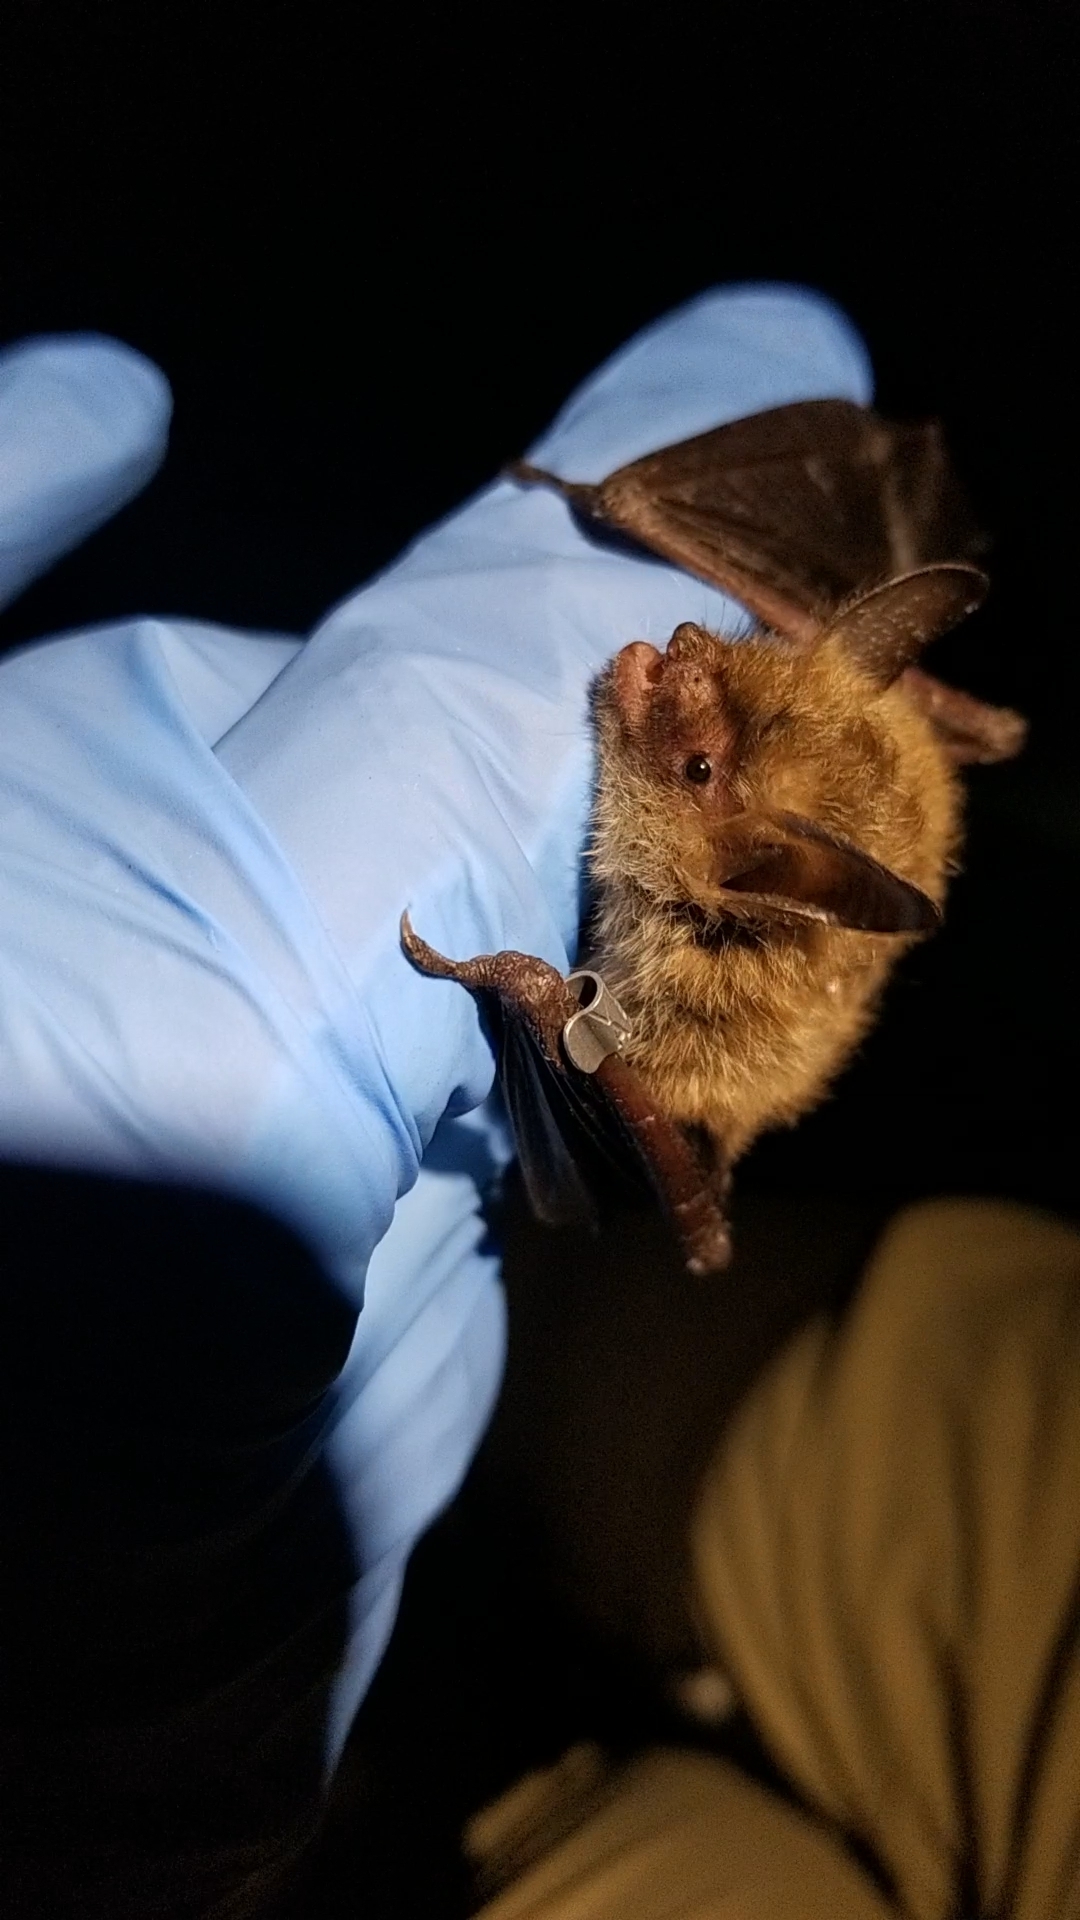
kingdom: Animalia
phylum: Chordata
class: Mammalia
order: Chiroptera
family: Vespertilionidae
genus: Myotis
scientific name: Myotis septentrionalis
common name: Northern myotis
